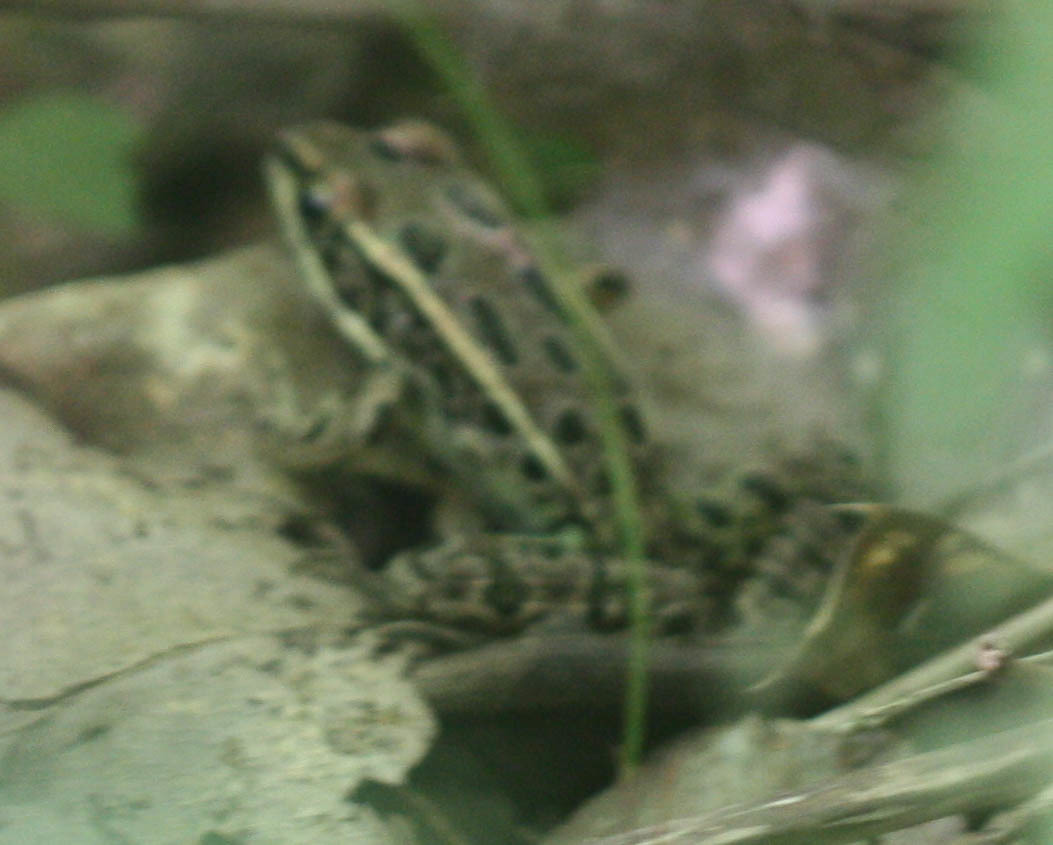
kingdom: Animalia
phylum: Chordata
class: Amphibia
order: Anura
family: Ranidae
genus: Lithobates
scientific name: Lithobates pipiens
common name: Northern leopard frog
